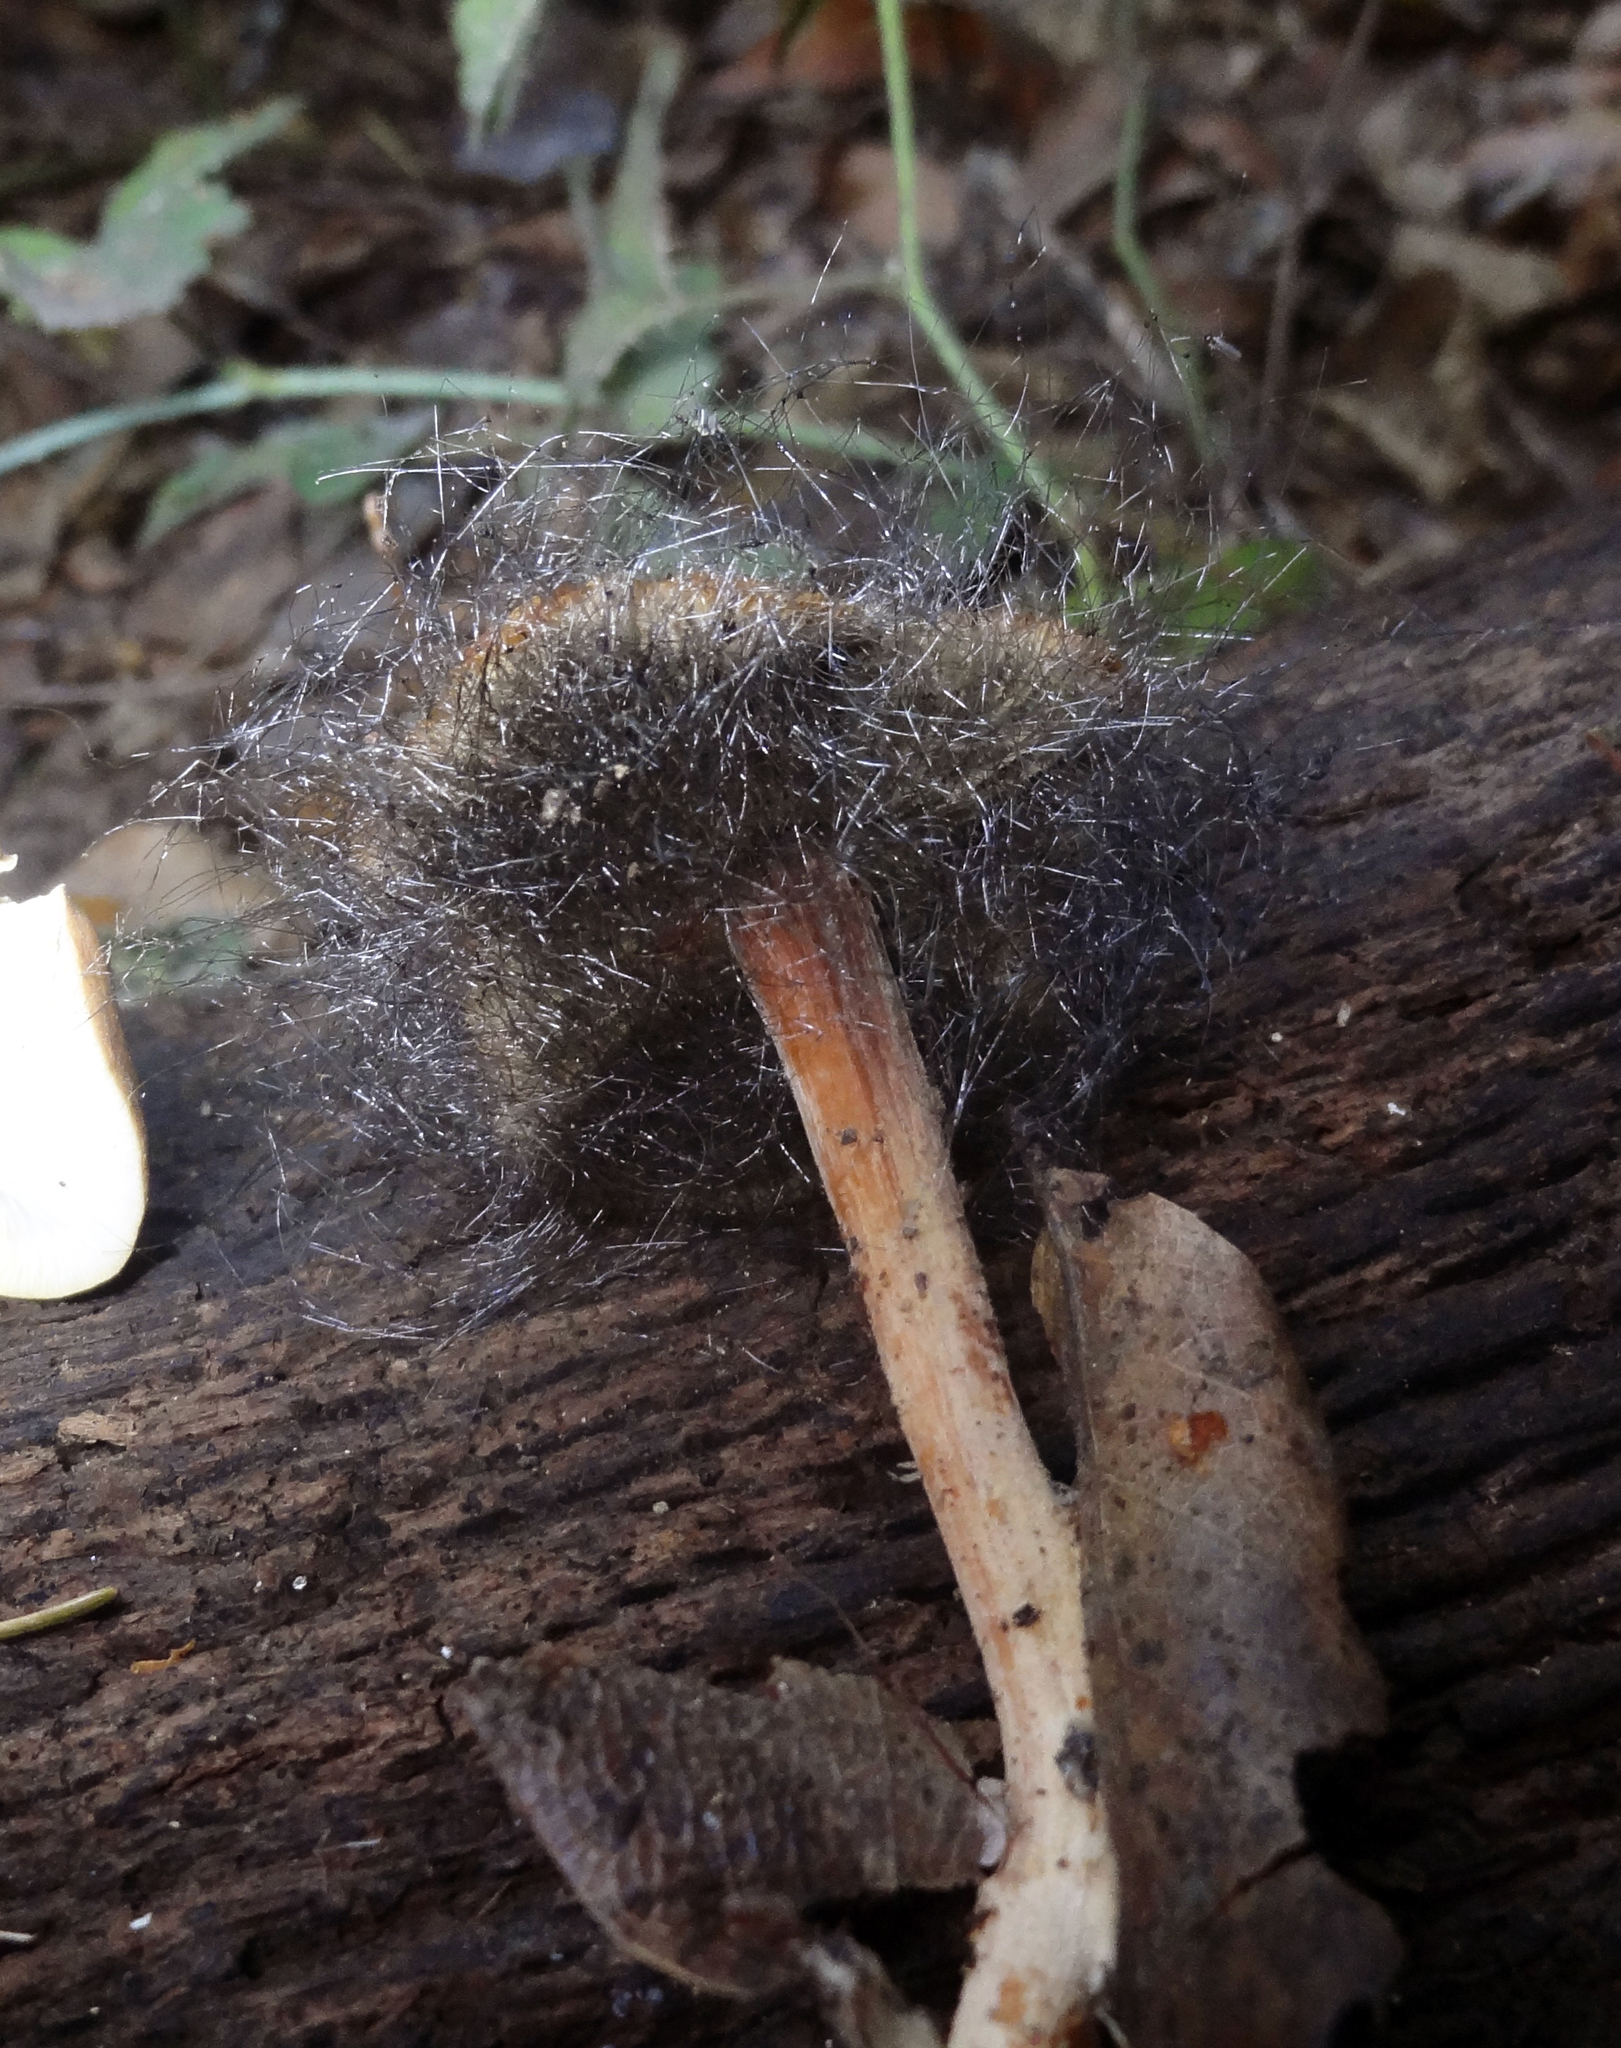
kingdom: Fungi
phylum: Mucoromycota
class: Mucoromycetes
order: Mucorales
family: Phycomycetaceae
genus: Spinellus
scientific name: Spinellus fusiger
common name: Bonnet mould
